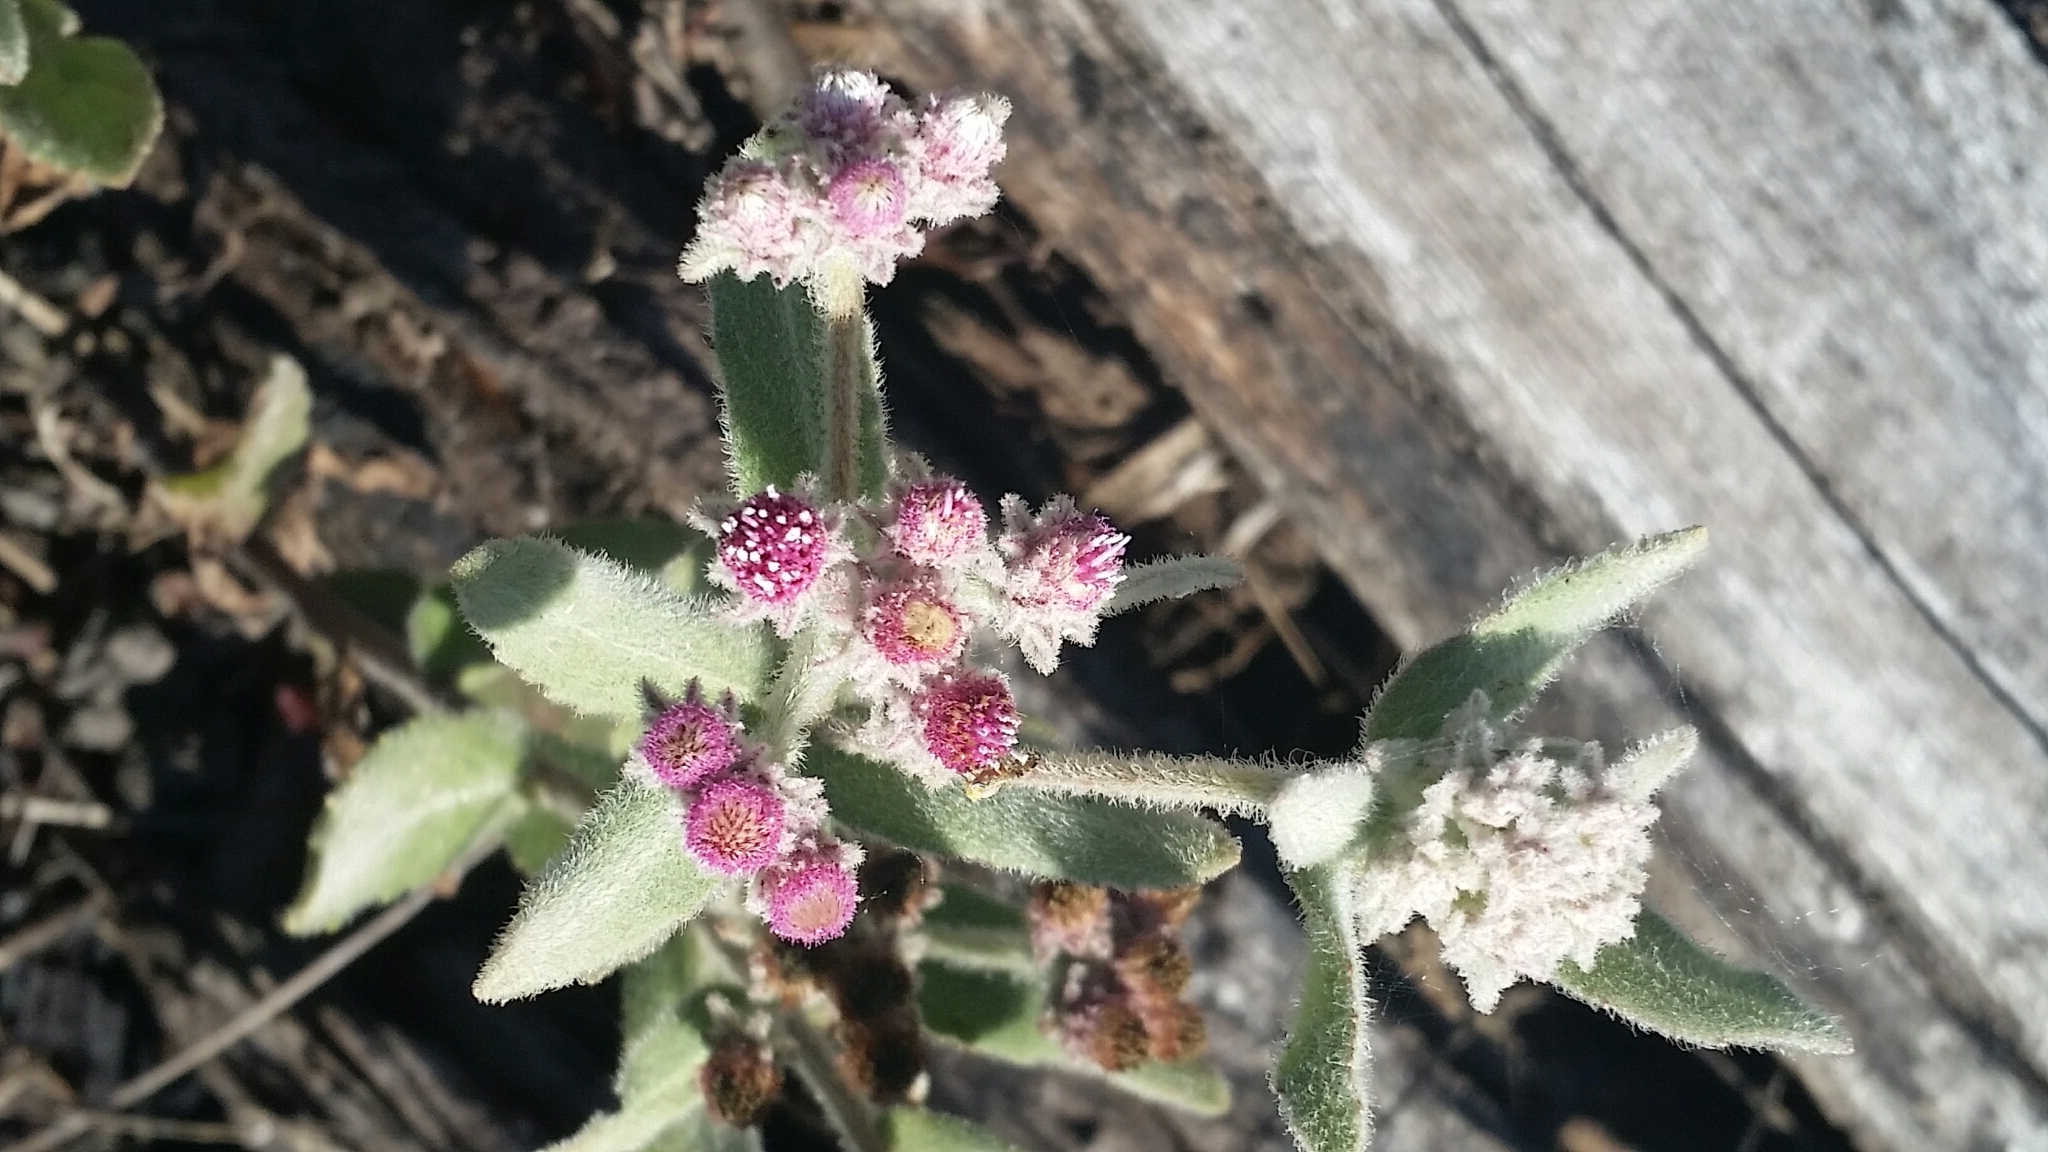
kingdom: Plantae
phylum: Tracheophyta
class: Magnoliopsida
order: Asterales
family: Asteraceae
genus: Pluchea
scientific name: Pluchea baccharis
